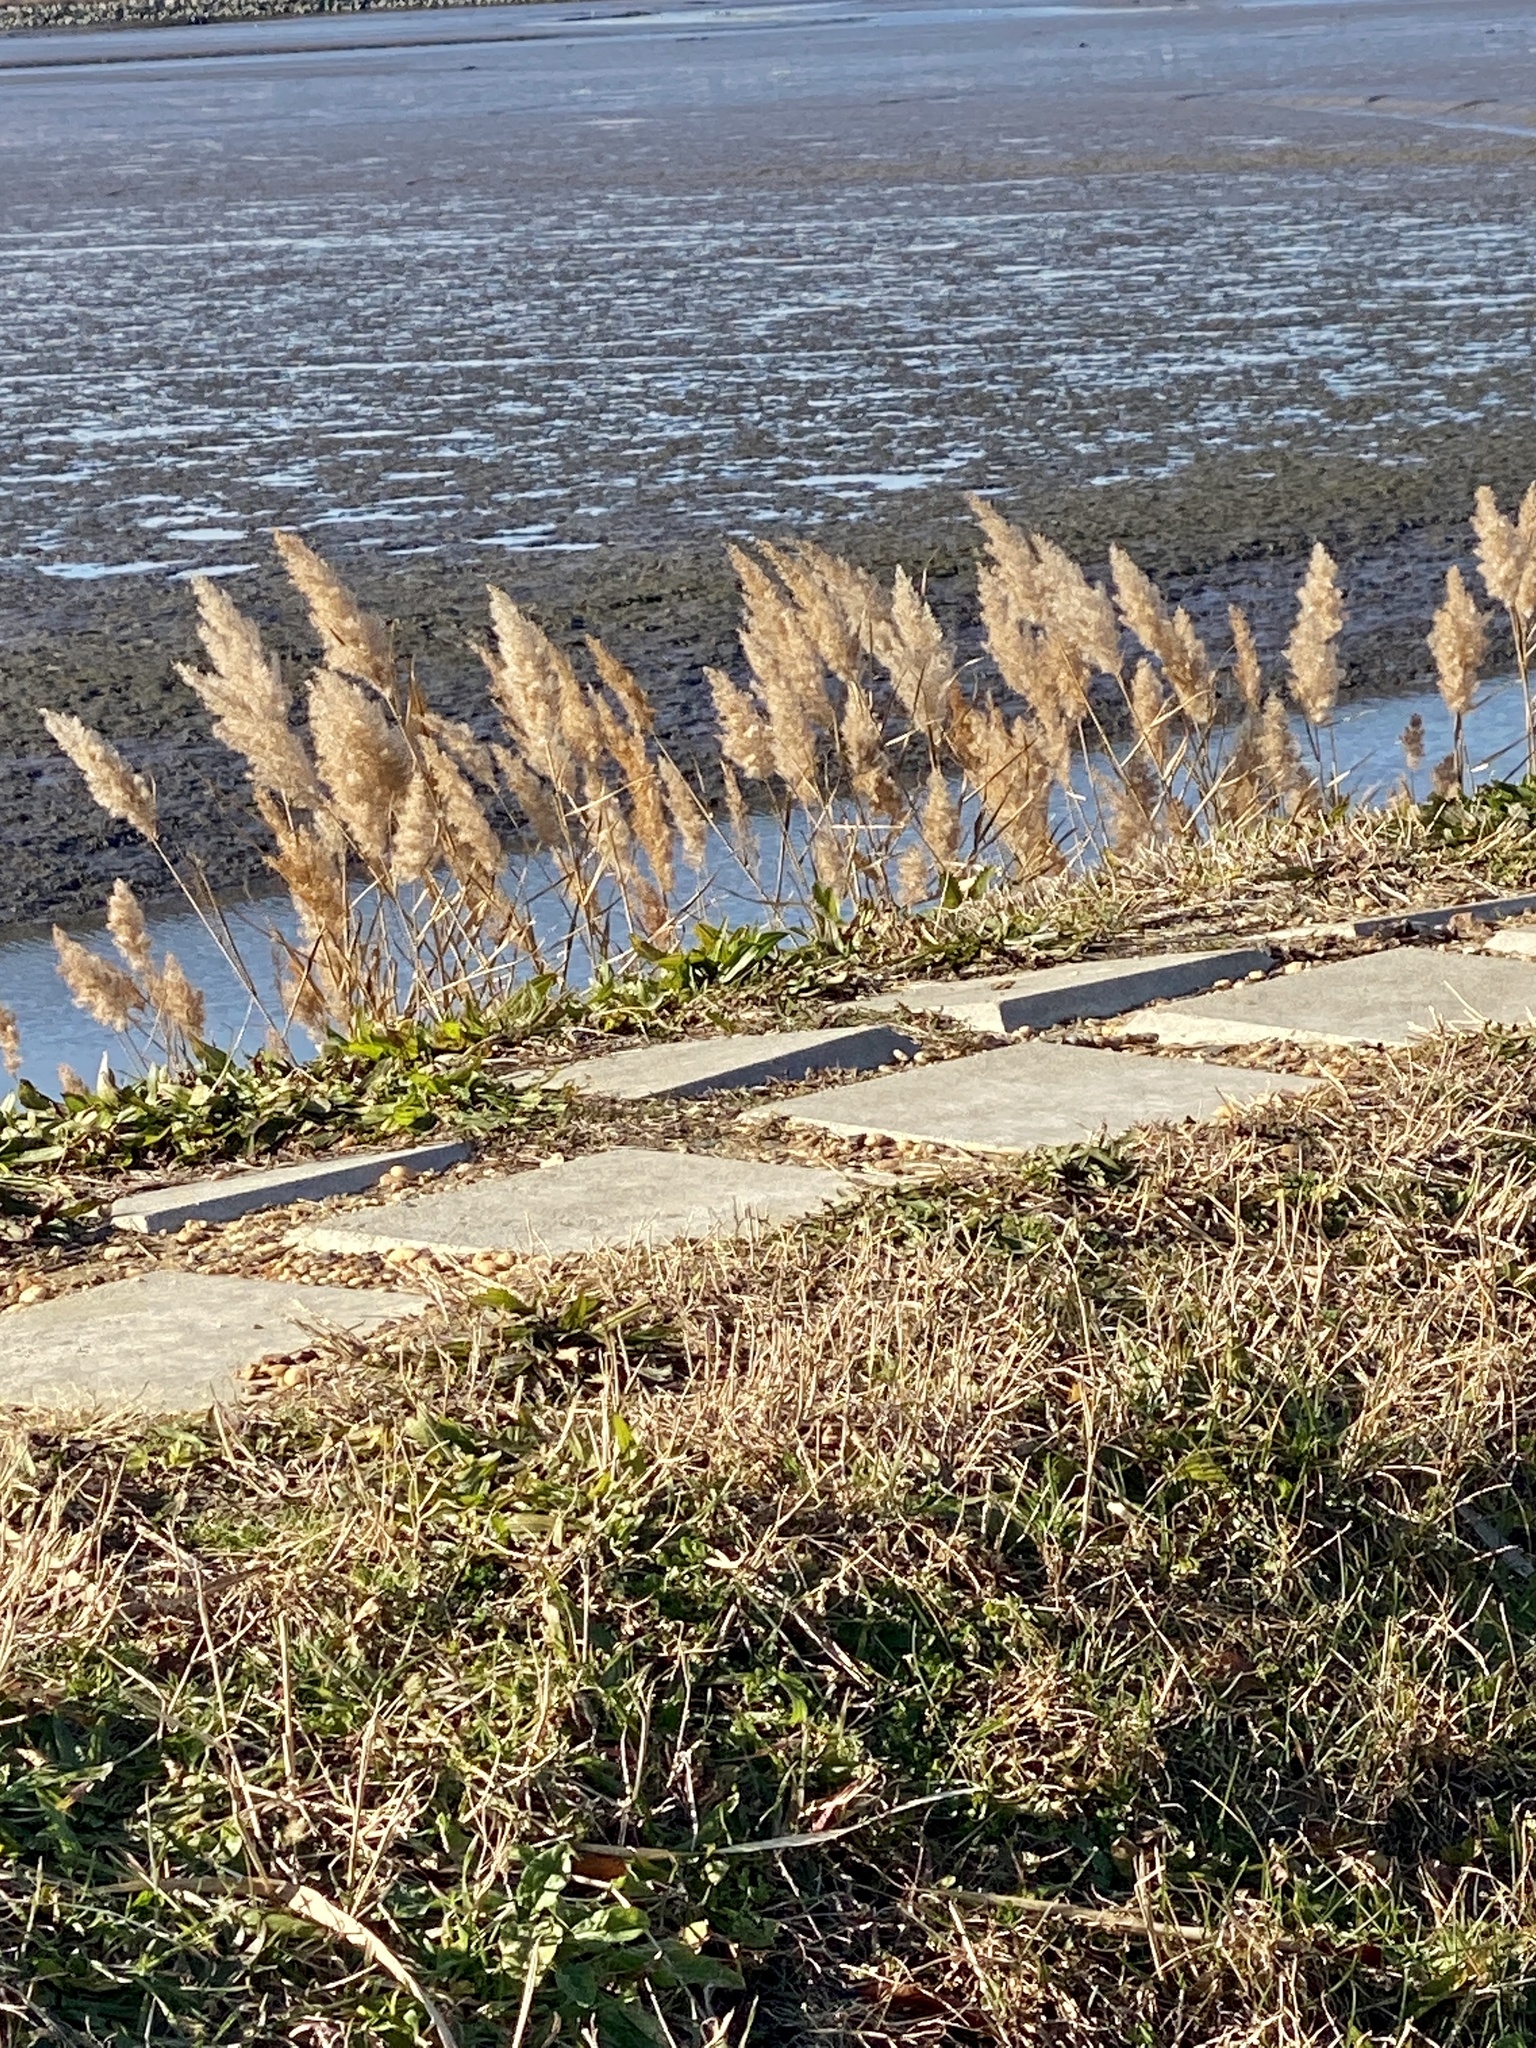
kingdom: Plantae
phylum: Tracheophyta
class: Liliopsida
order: Poales
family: Poaceae
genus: Phragmites
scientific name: Phragmites australis
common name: Common reed
